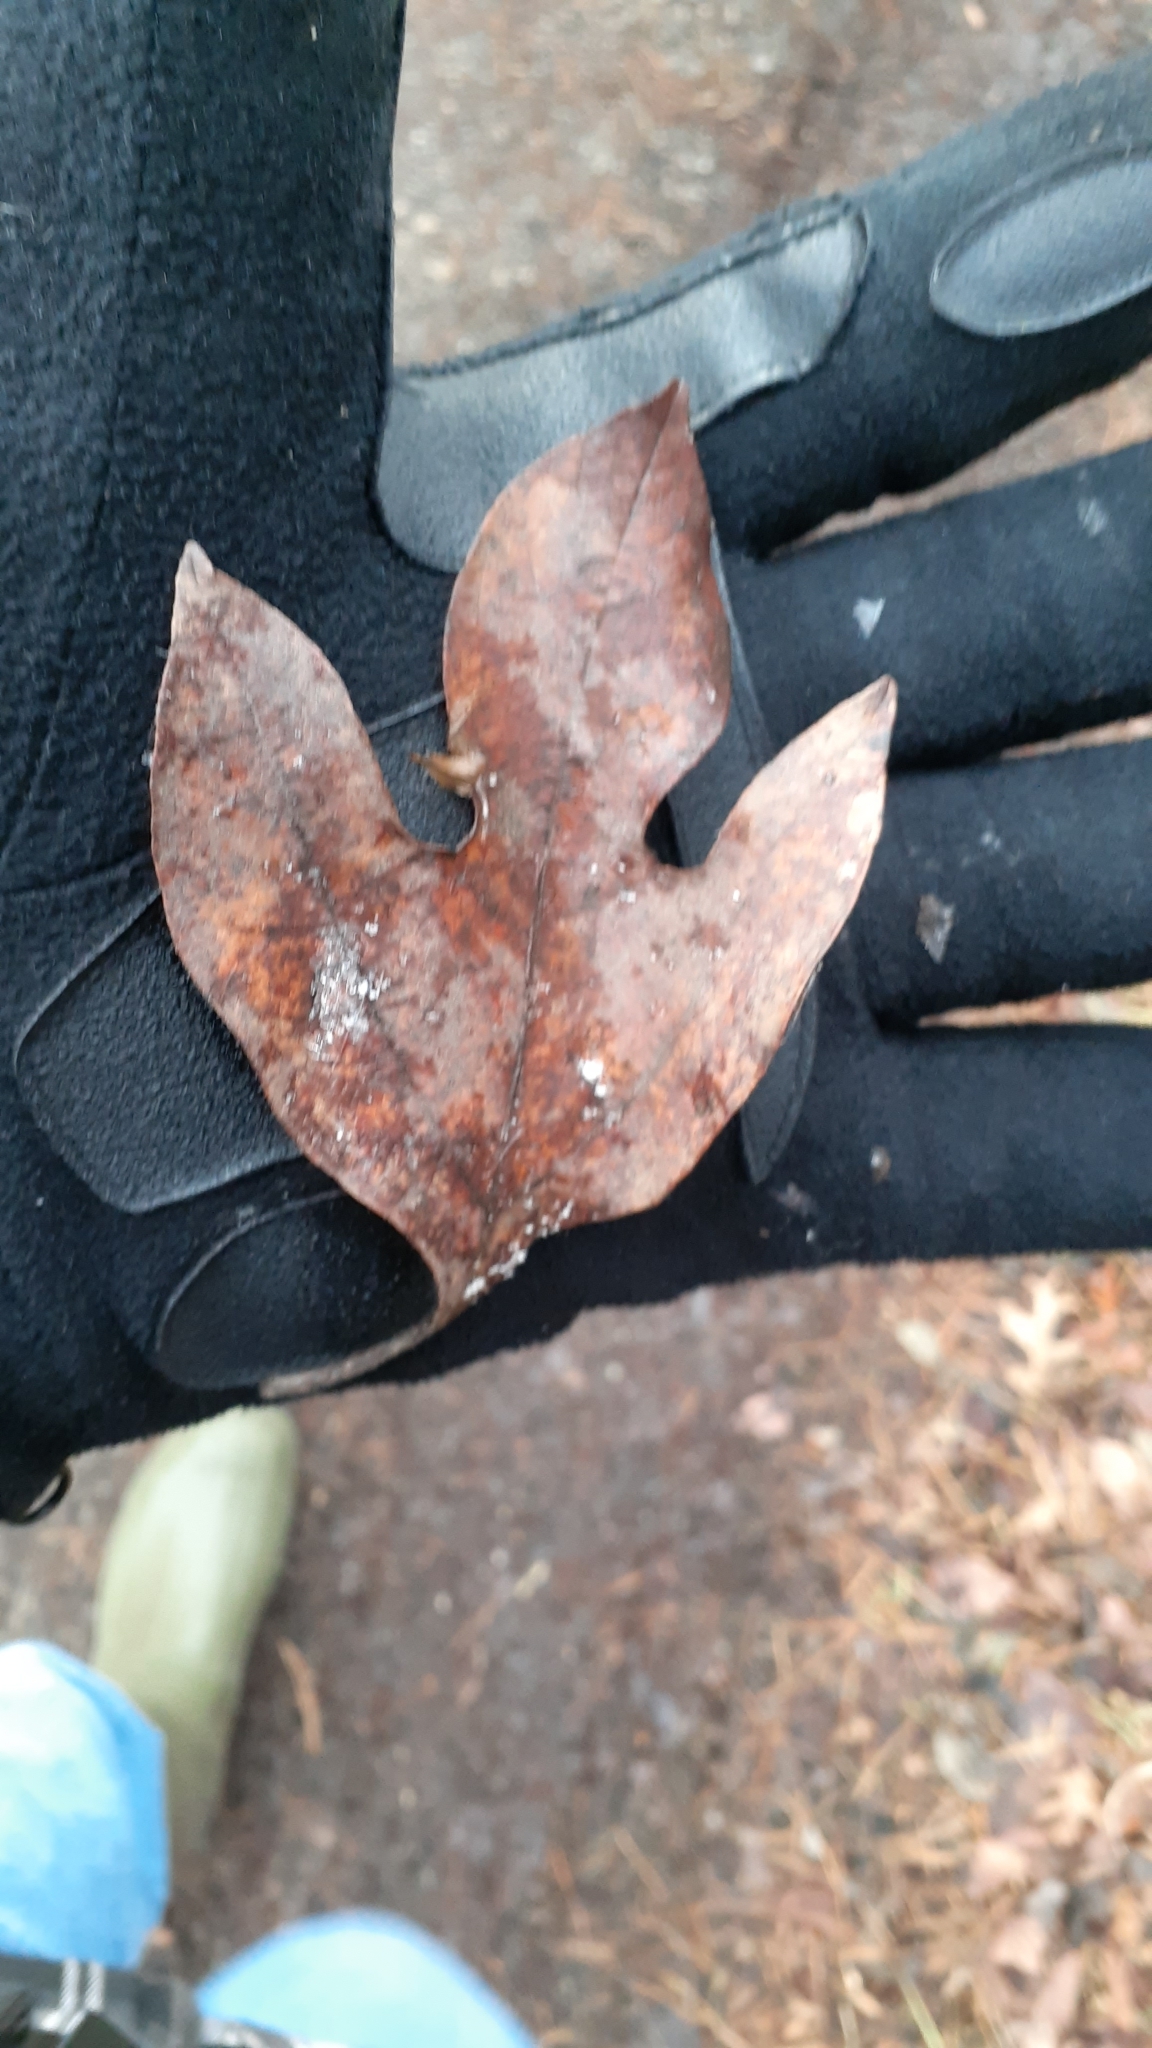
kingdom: Plantae
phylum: Tracheophyta
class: Magnoliopsida
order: Laurales
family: Lauraceae
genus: Sassafras
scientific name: Sassafras albidum
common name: Sassafras
